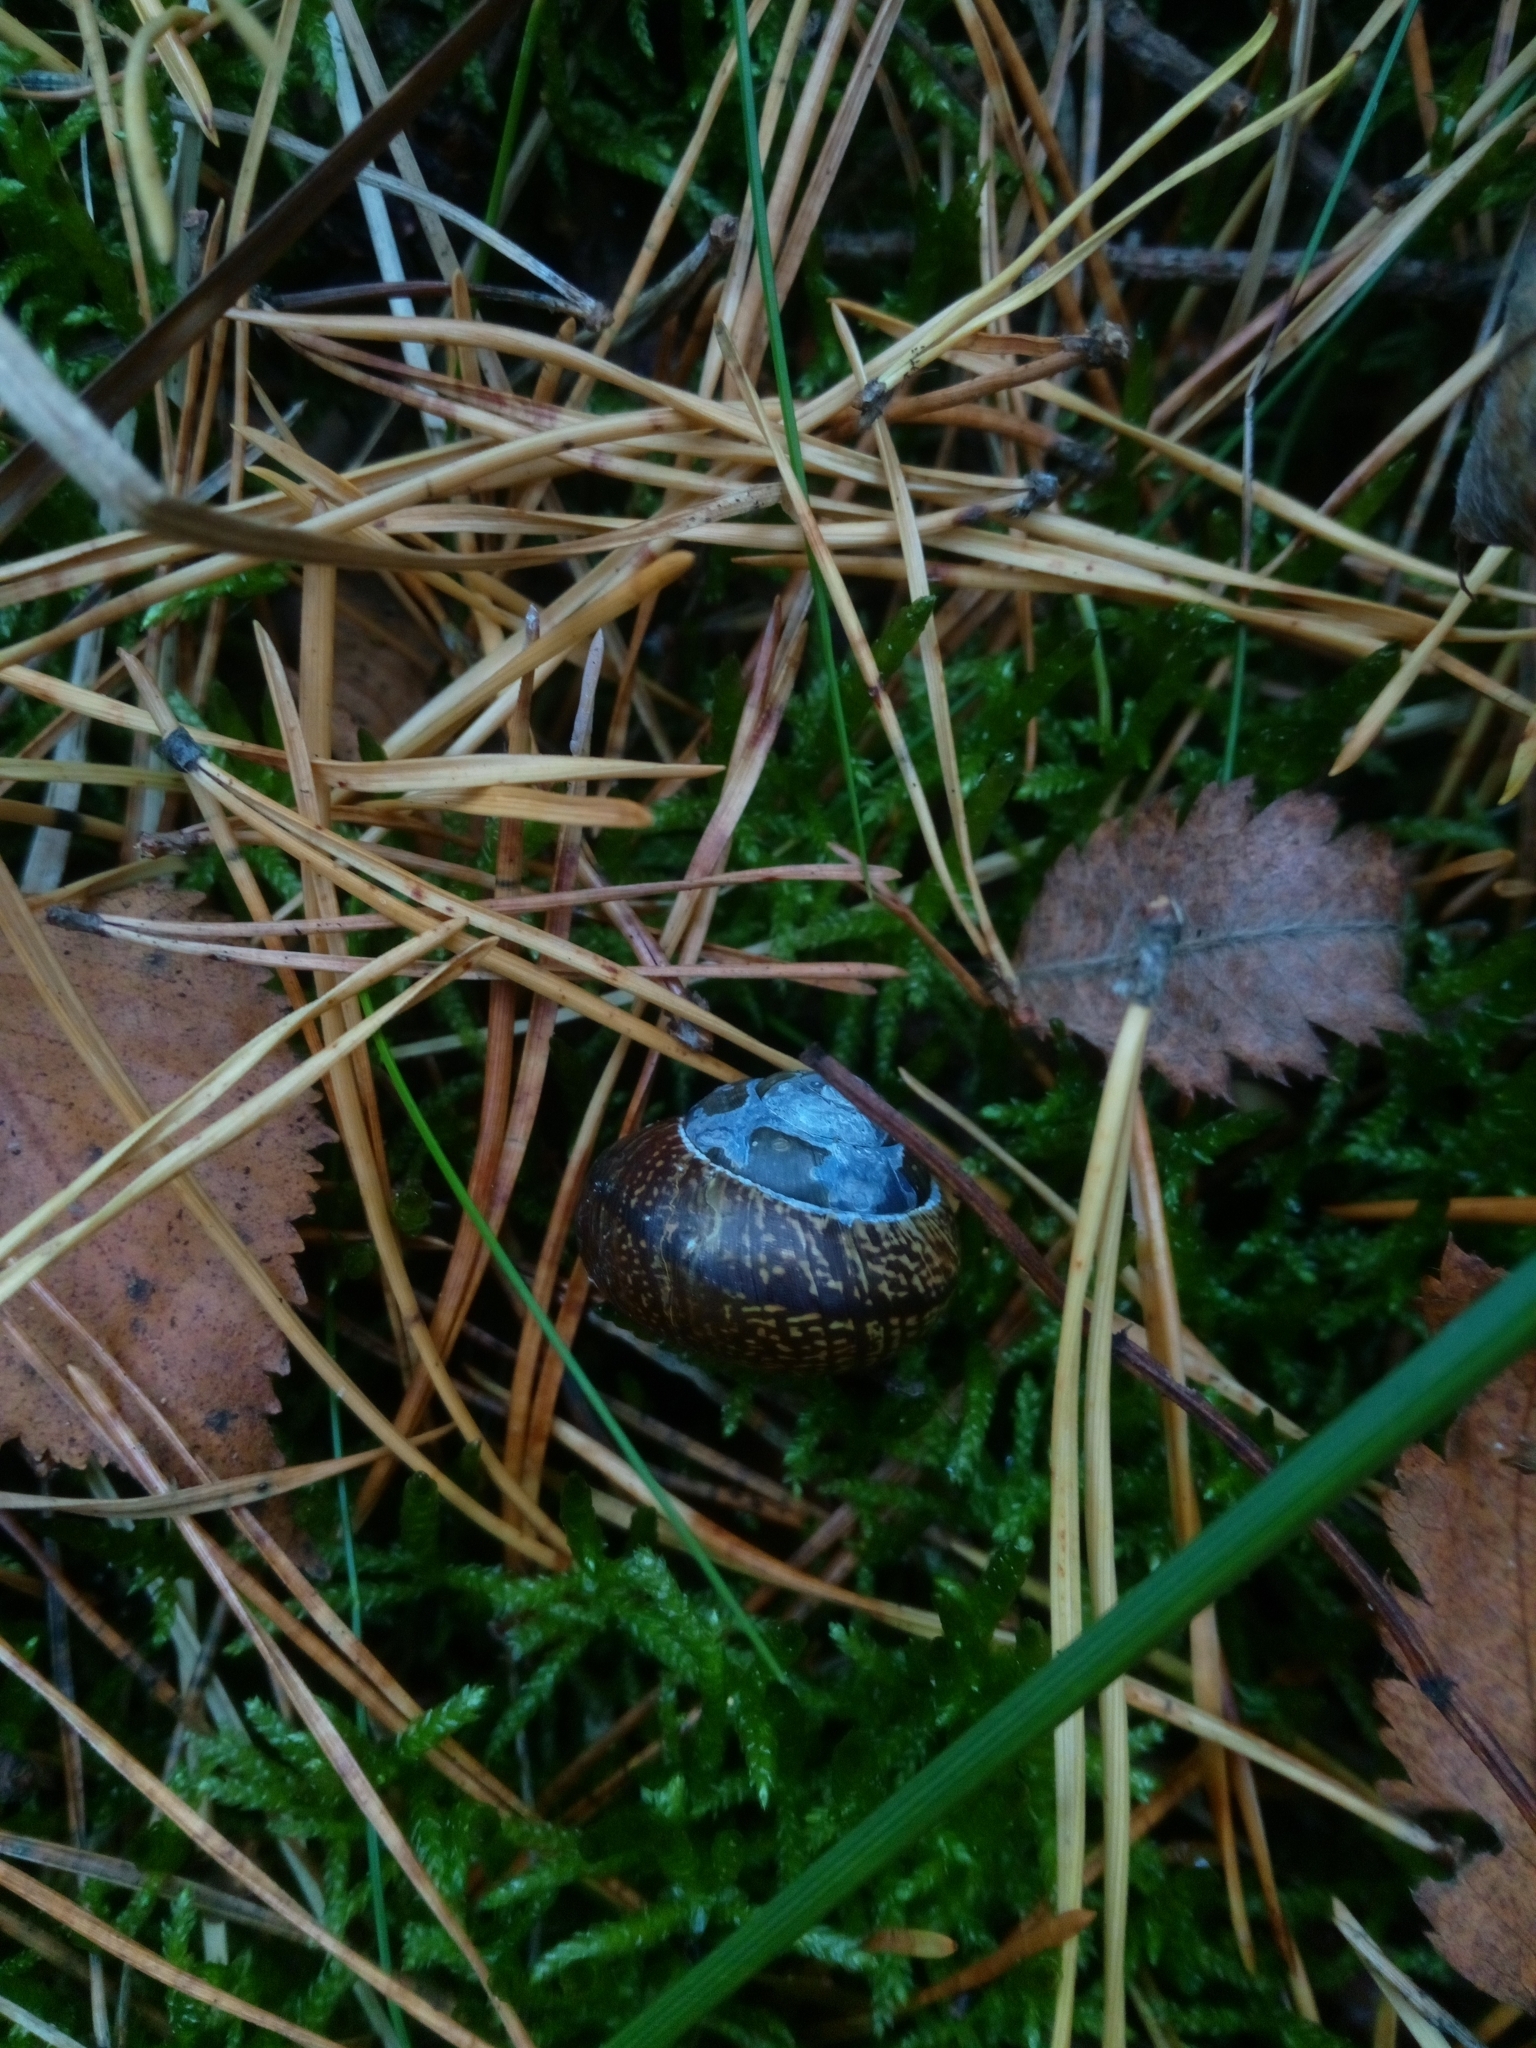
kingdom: Animalia
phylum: Mollusca
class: Gastropoda
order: Stylommatophora
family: Helicidae
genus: Arianta
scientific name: Arianta arbustorum
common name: Copse snail
